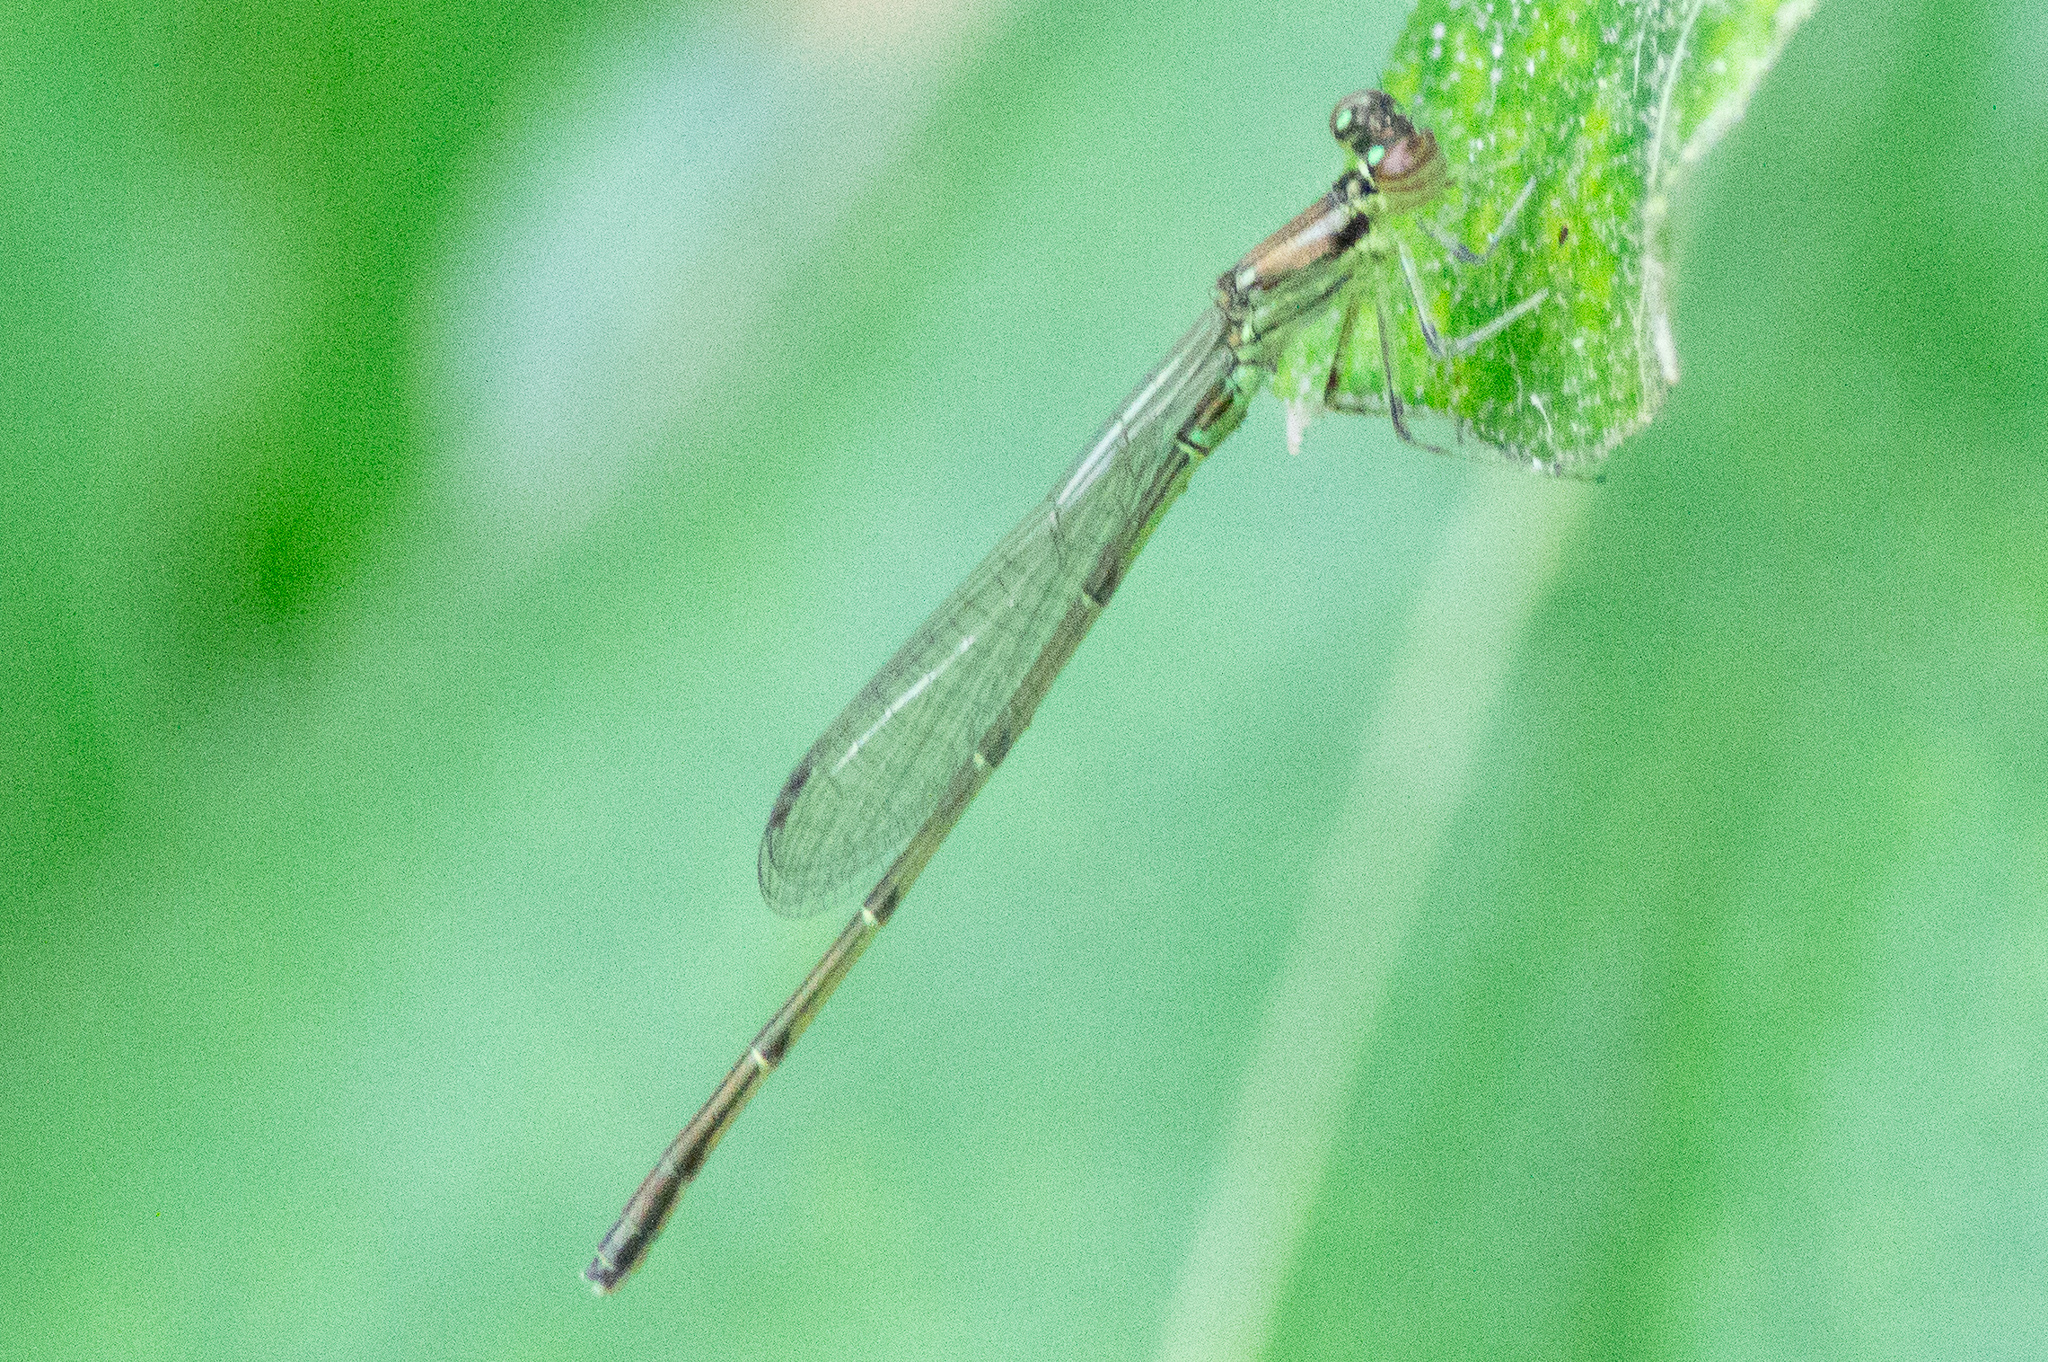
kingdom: Animalia
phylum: Arthropoda
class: Insecta
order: Odonata
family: Coenagrionidae
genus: Ischnura
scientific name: Ischnura posita
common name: Fragile forktail
